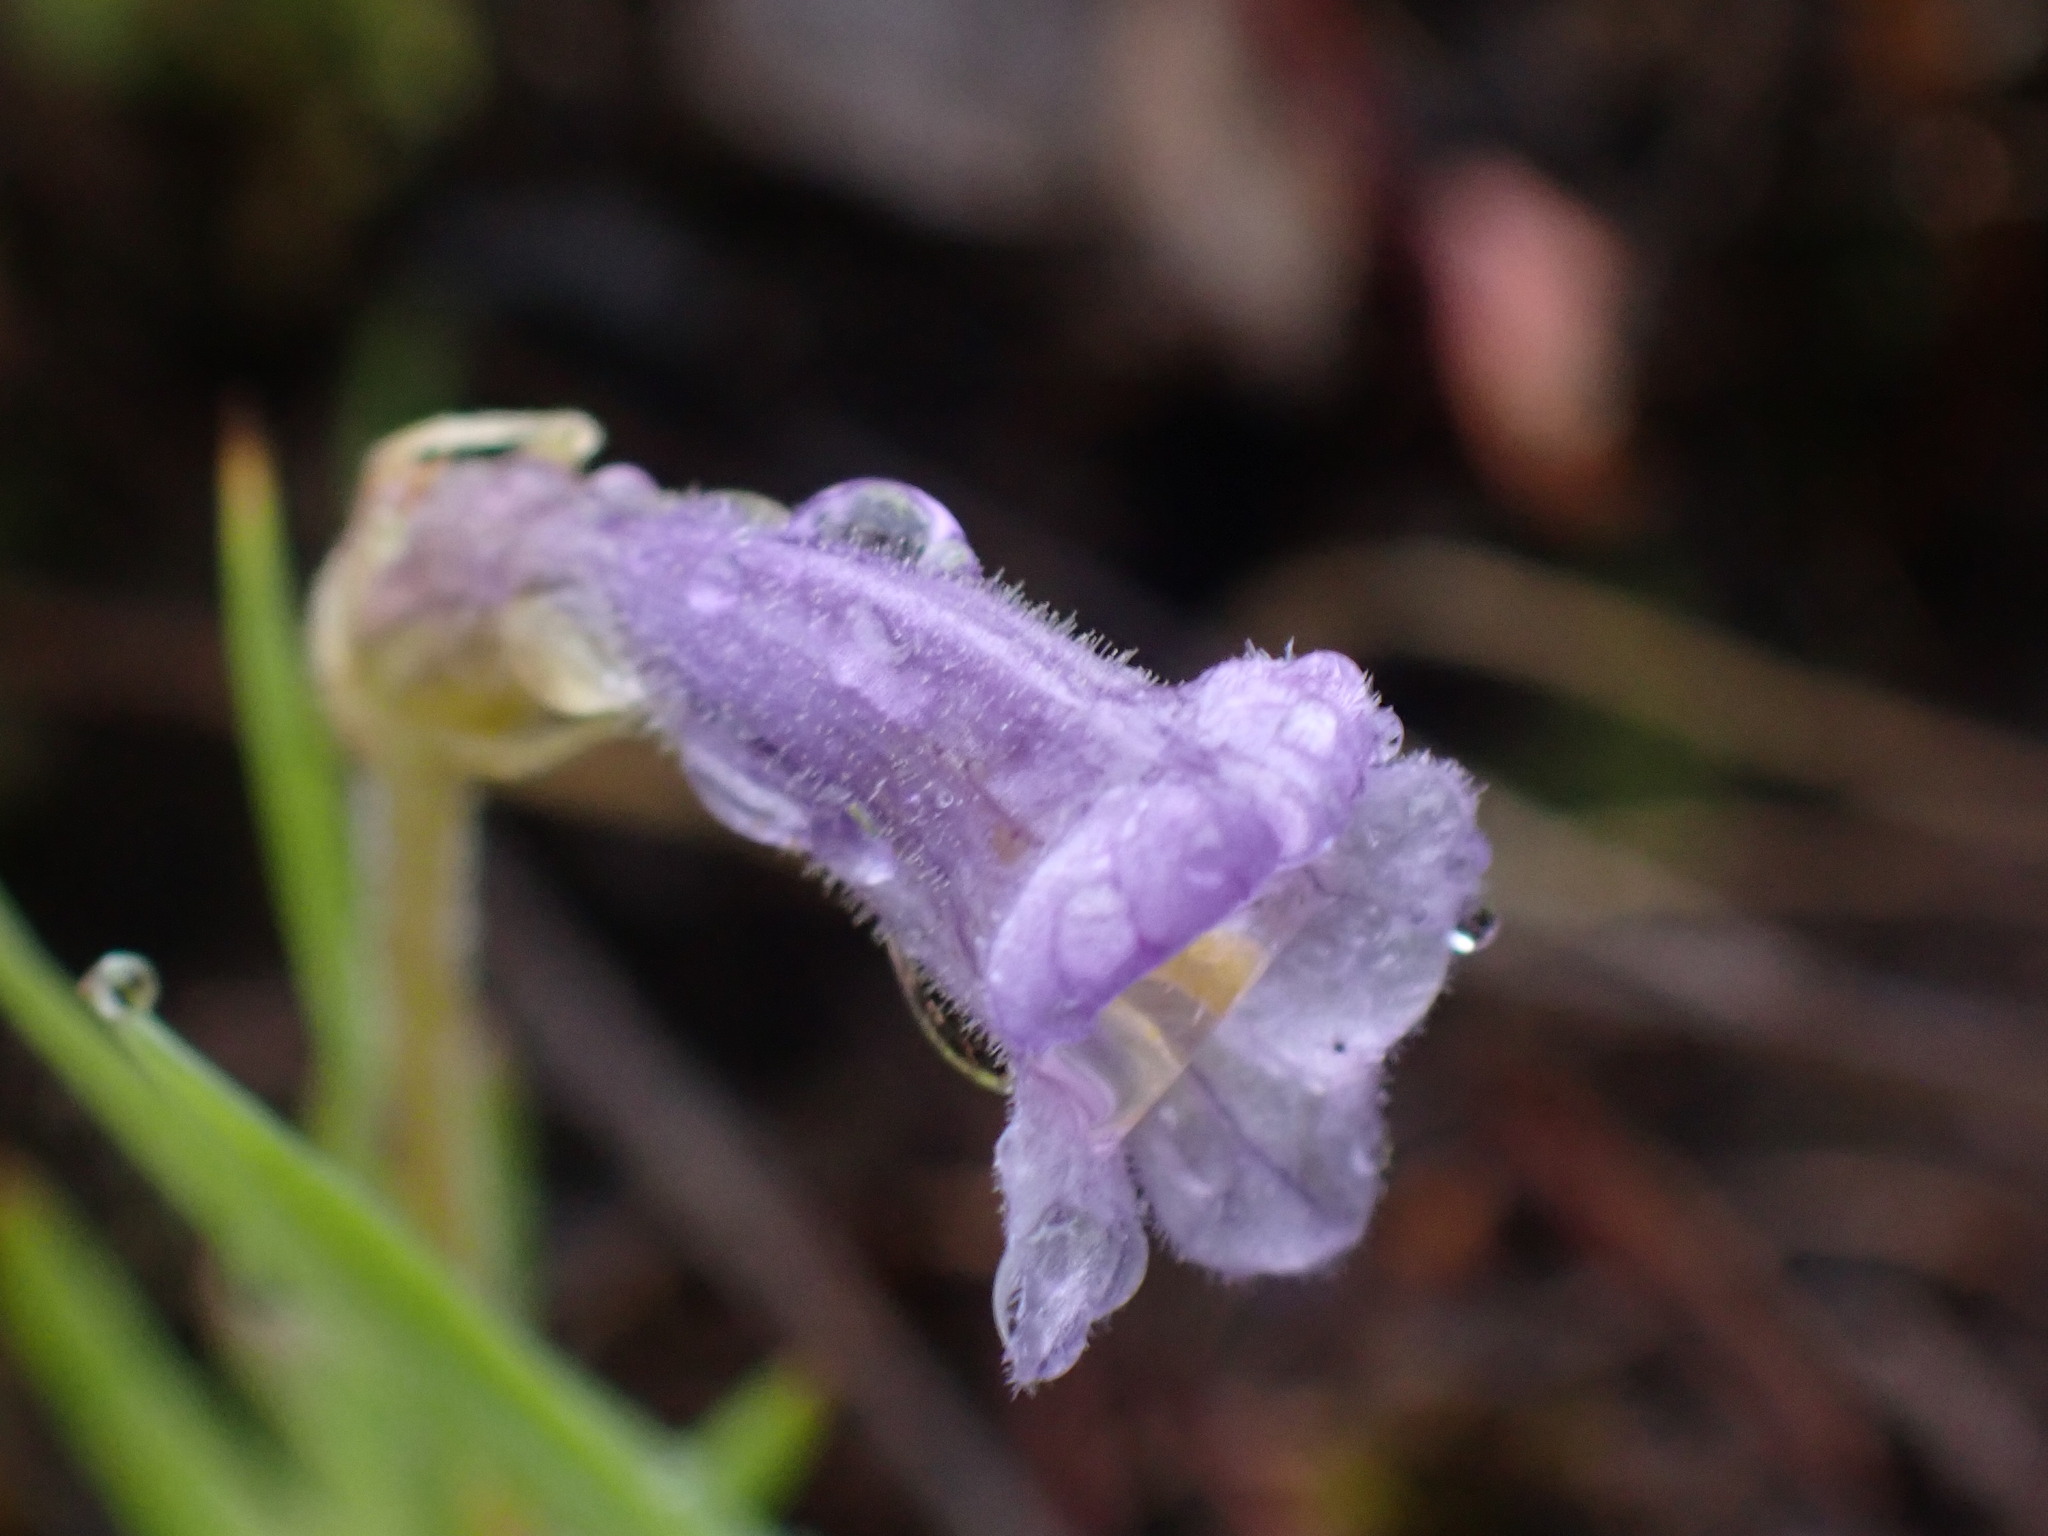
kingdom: Plantae
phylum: Tracheophyta
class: Magnoliopsida
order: Lamiales
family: Orobanchaceae
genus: Aphyllon
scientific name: Aphyllon uniflorum
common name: One-flowered broomrape
